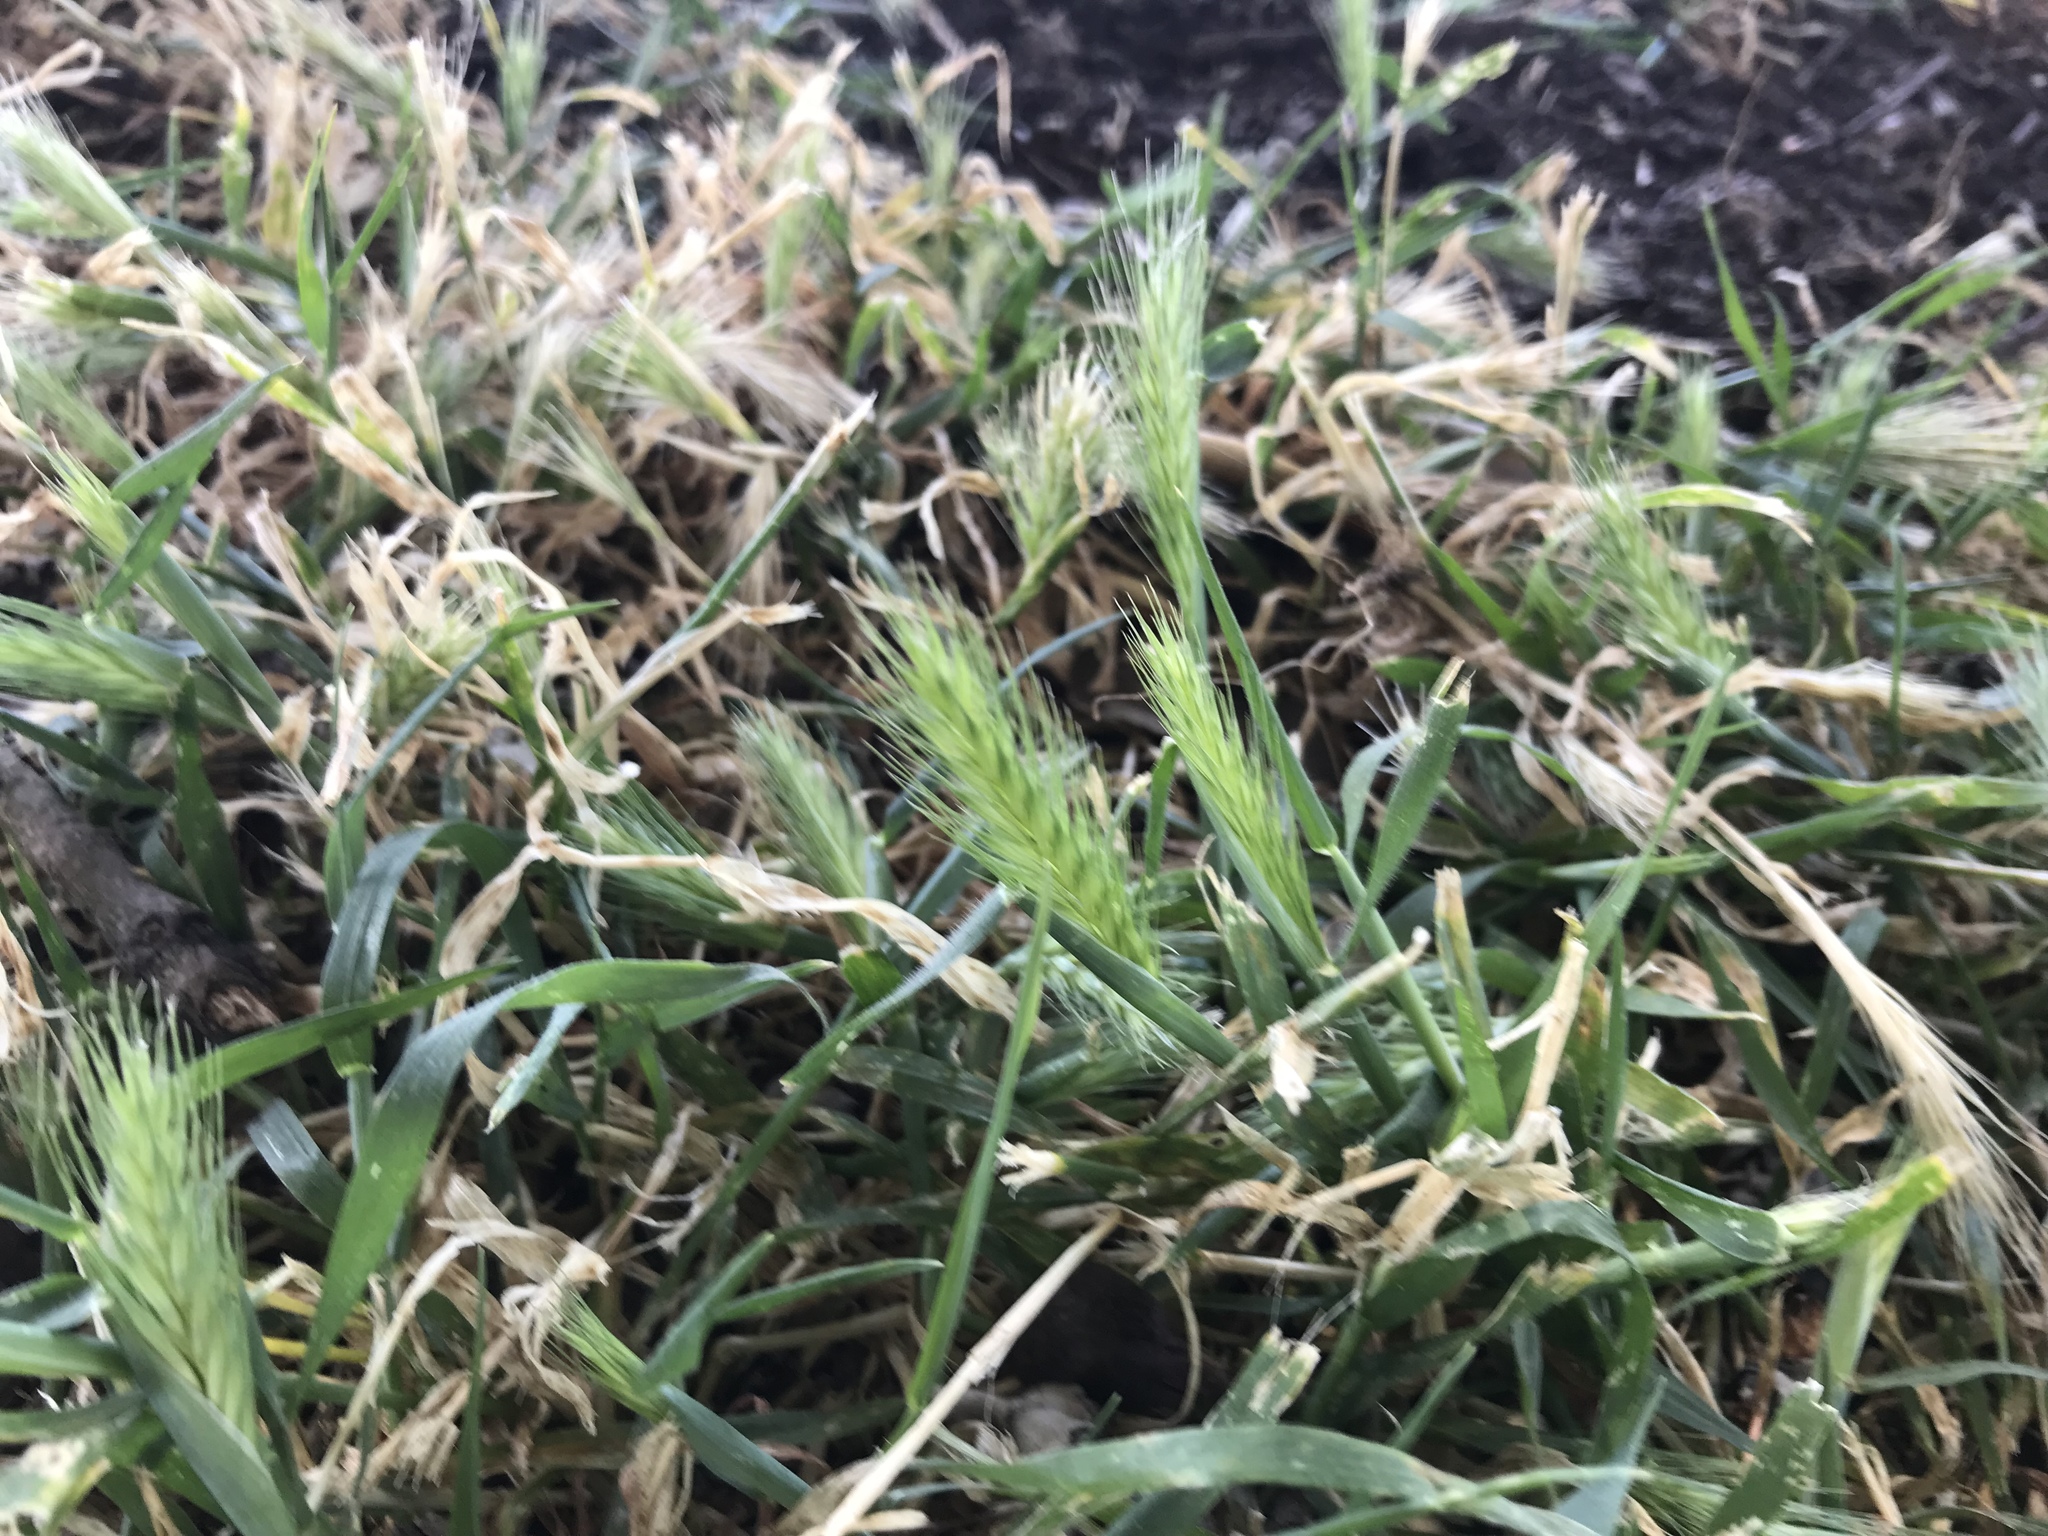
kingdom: Plantae
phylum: Tracheophyta
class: Liliopsida
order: Poales
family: Poaceae
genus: Hordeum
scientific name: Hordeum murinum
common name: Wall barley
